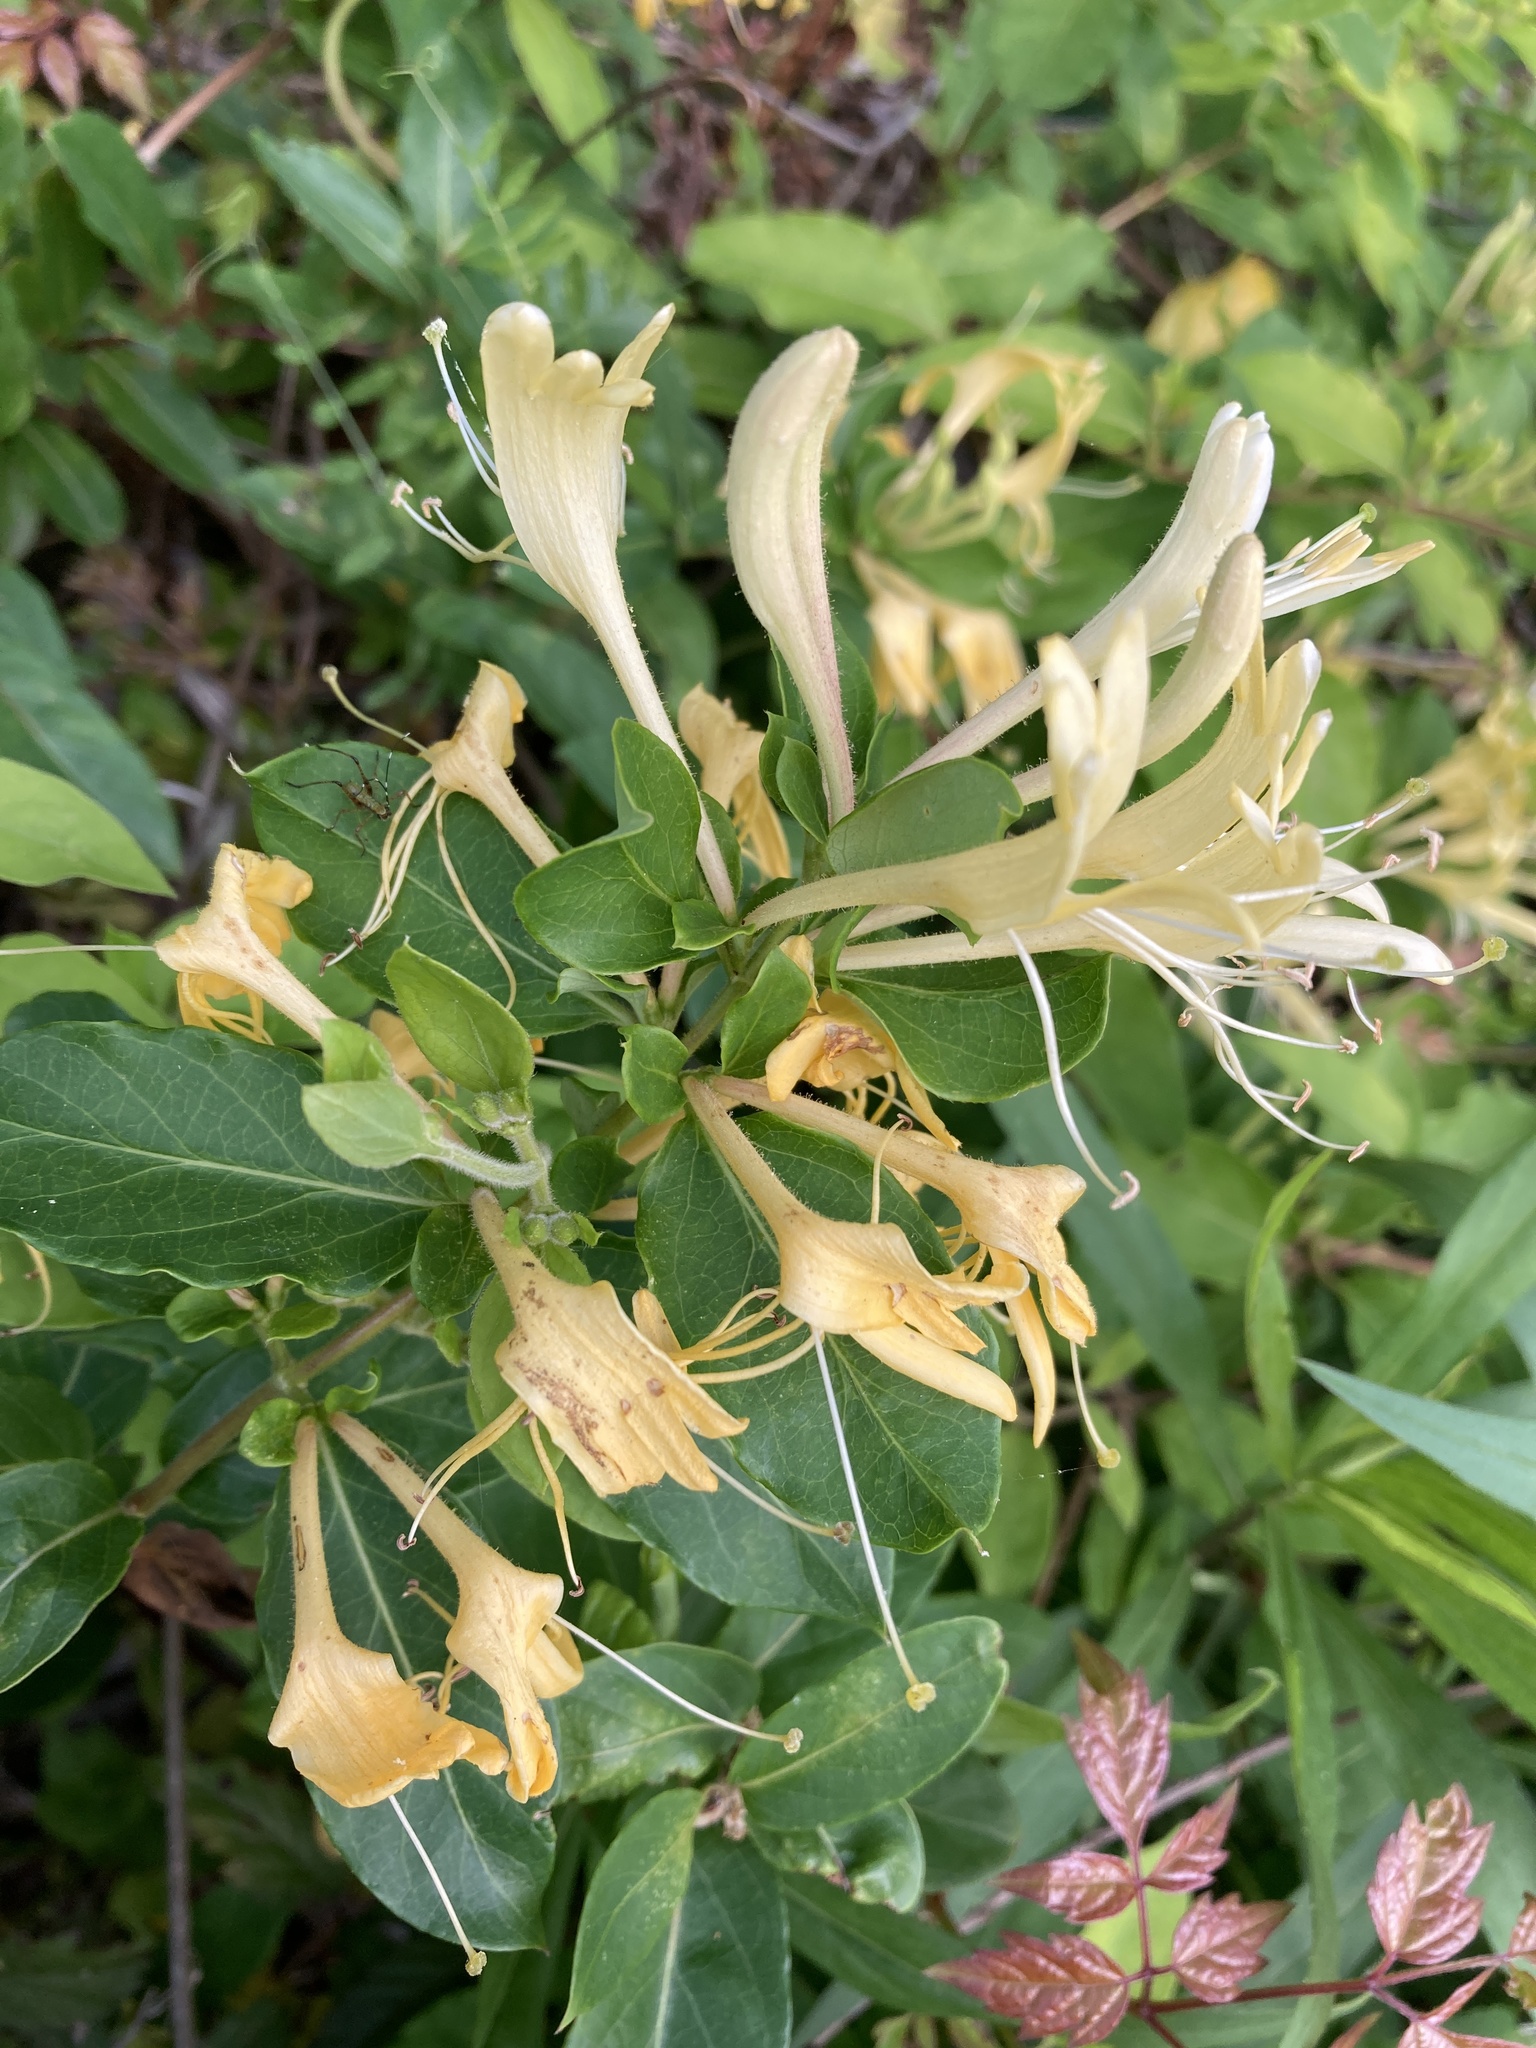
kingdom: Plantae
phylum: Tracheophyta
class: Magnoliopsida
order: Dipsacales
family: Caprifoliaceae
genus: Lonicera
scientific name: Lonicera japonica
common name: Japanese honeysuckle
